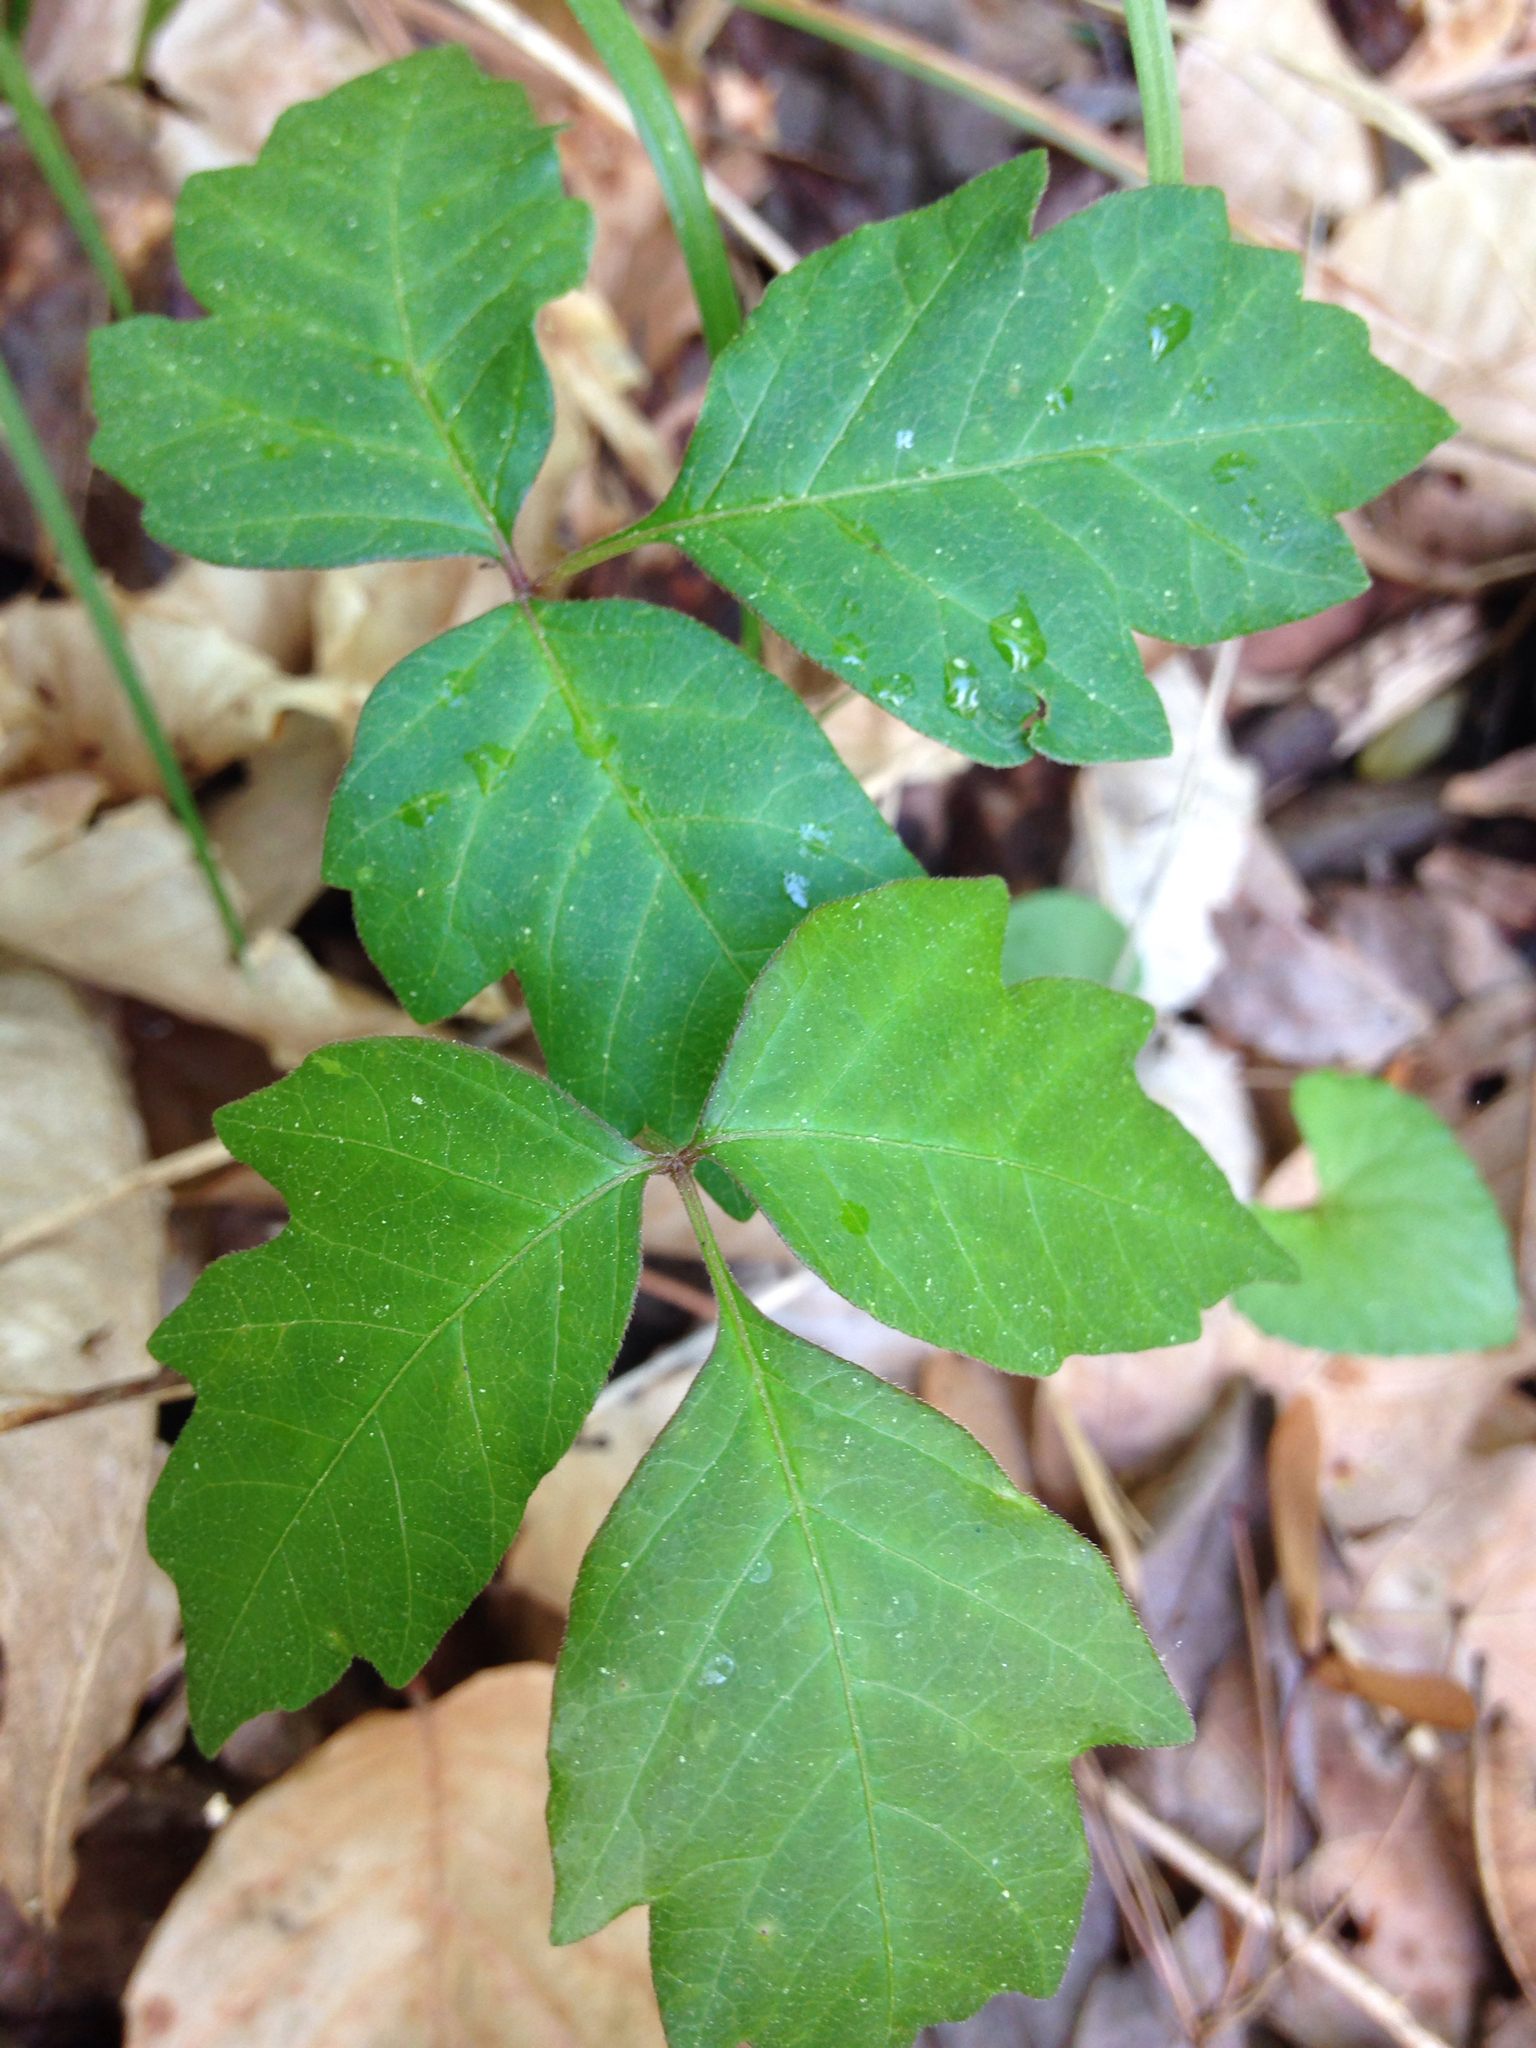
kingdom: Plantae
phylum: Tracheophyta
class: Magnoliopsida
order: Sapindales
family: Anacardiaceae
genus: Toxicodendron
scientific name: Toxicodendron radicans
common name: Poison ivy
